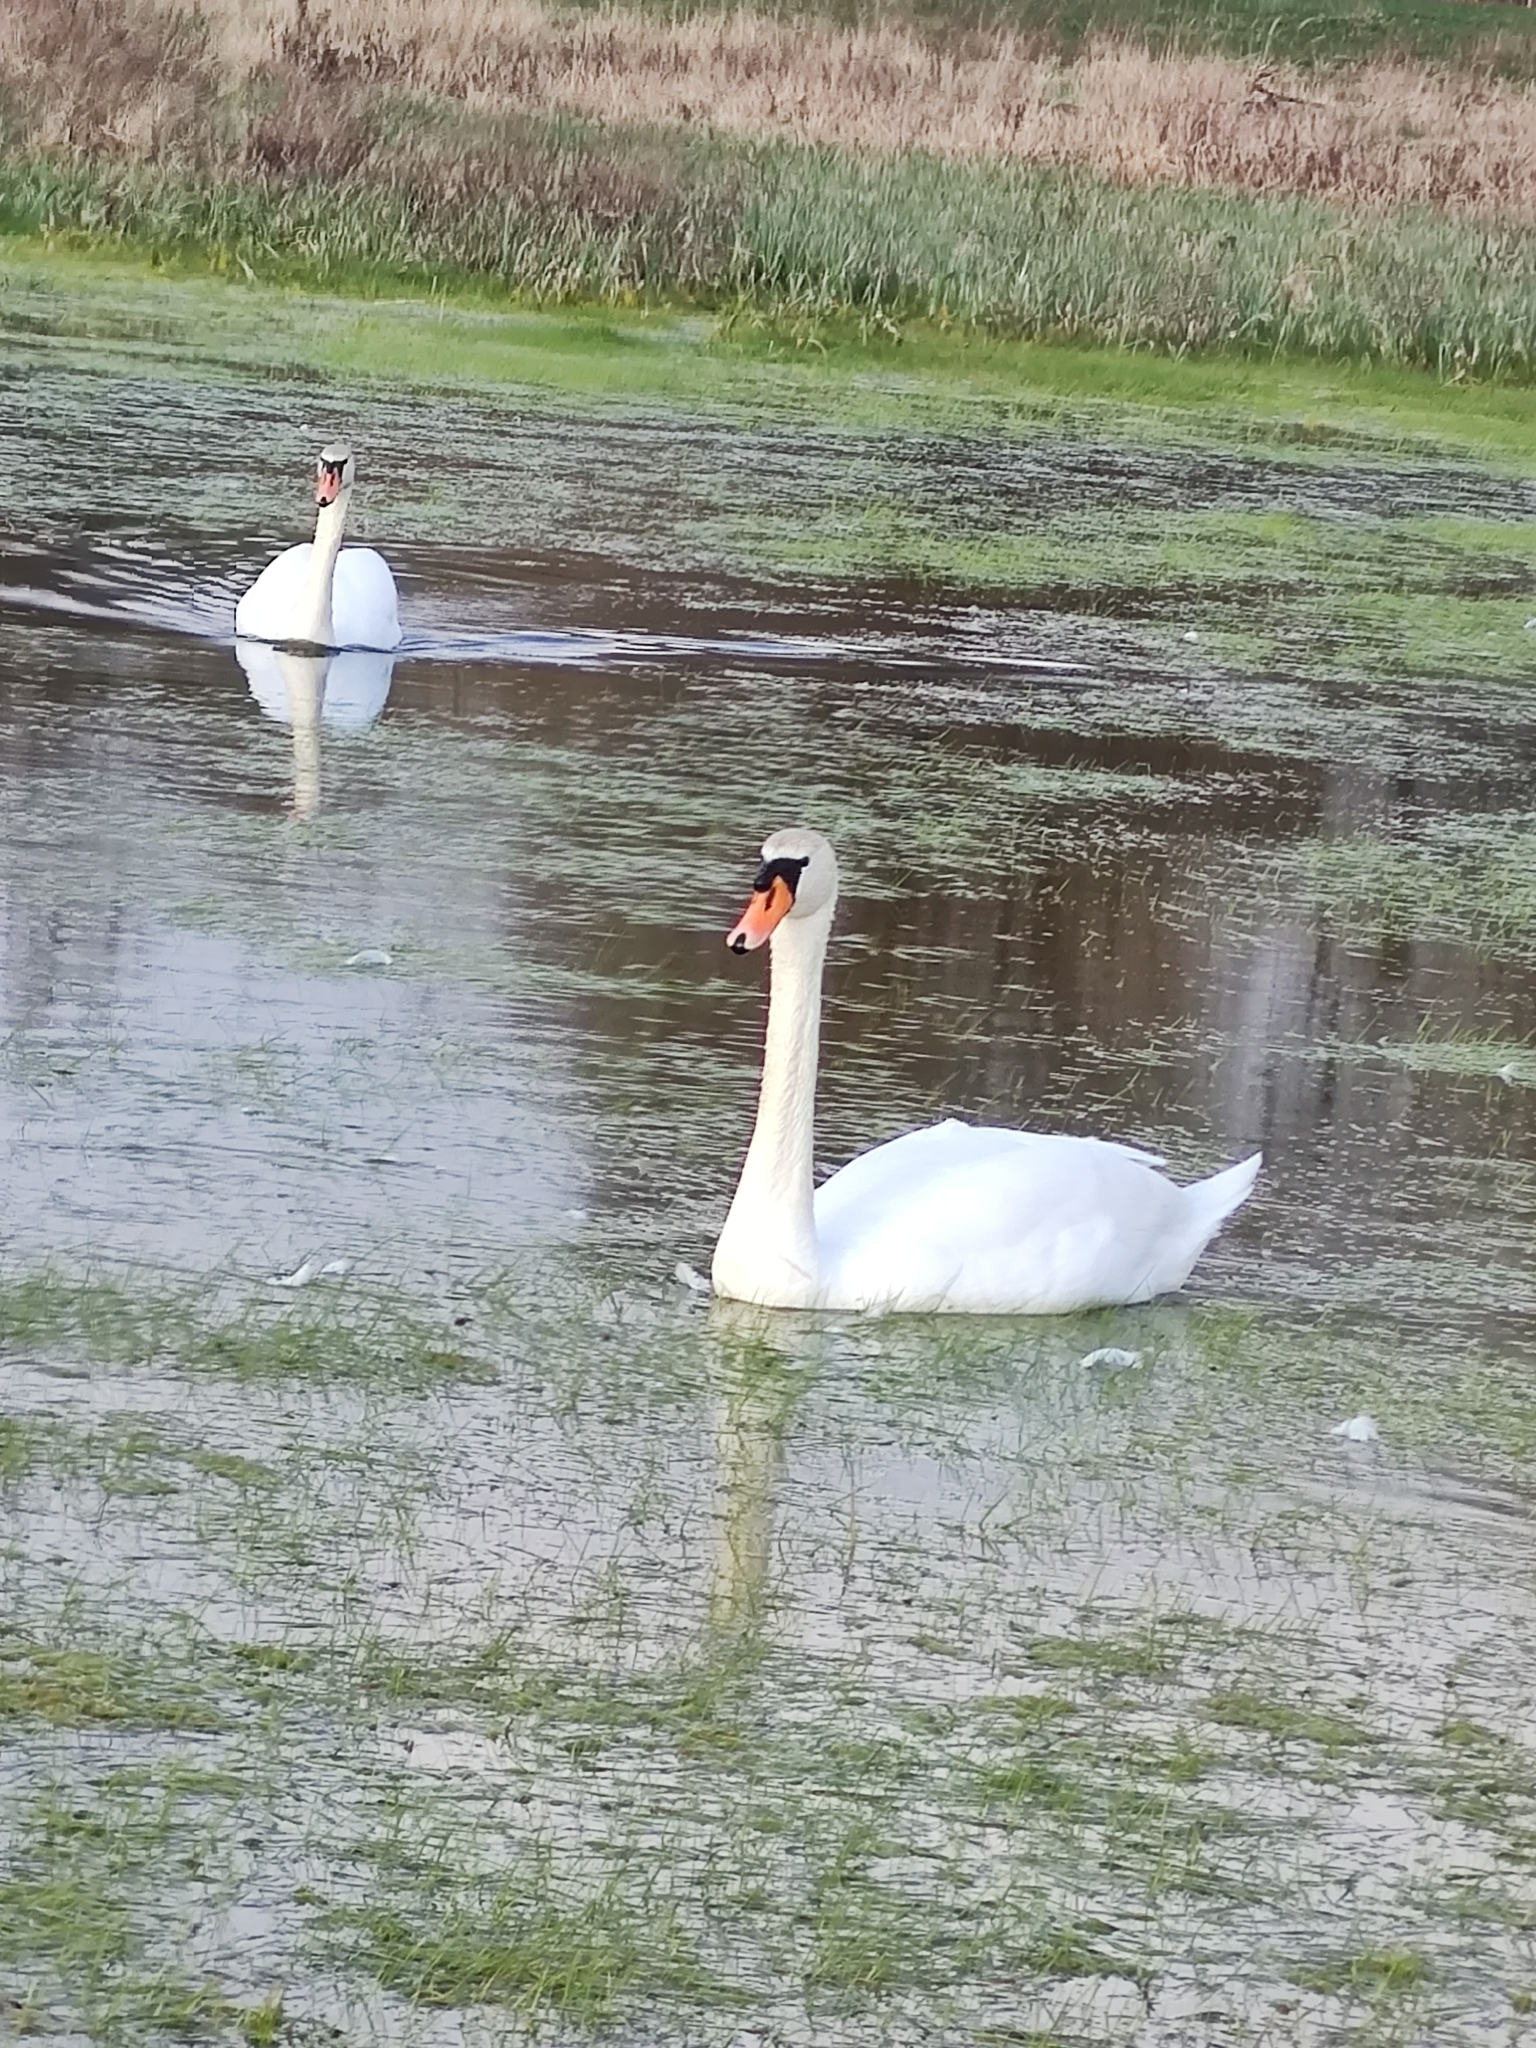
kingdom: Animalia
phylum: Chordata
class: Aves
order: Anseriformes
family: Anatidae
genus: Cygnus
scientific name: Cygnus olor
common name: Mute swan
